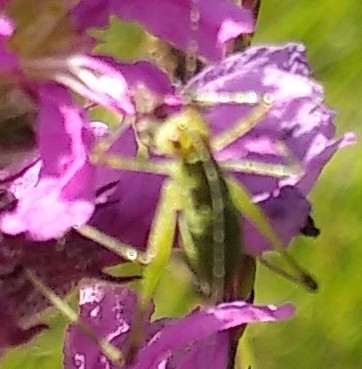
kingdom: Animalia
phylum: Arthropoda
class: Insecta
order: Orthoptera
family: Tettigoniidae
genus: Tettigonia
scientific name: Tettigonia viridissima
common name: Great green bush-cricket
